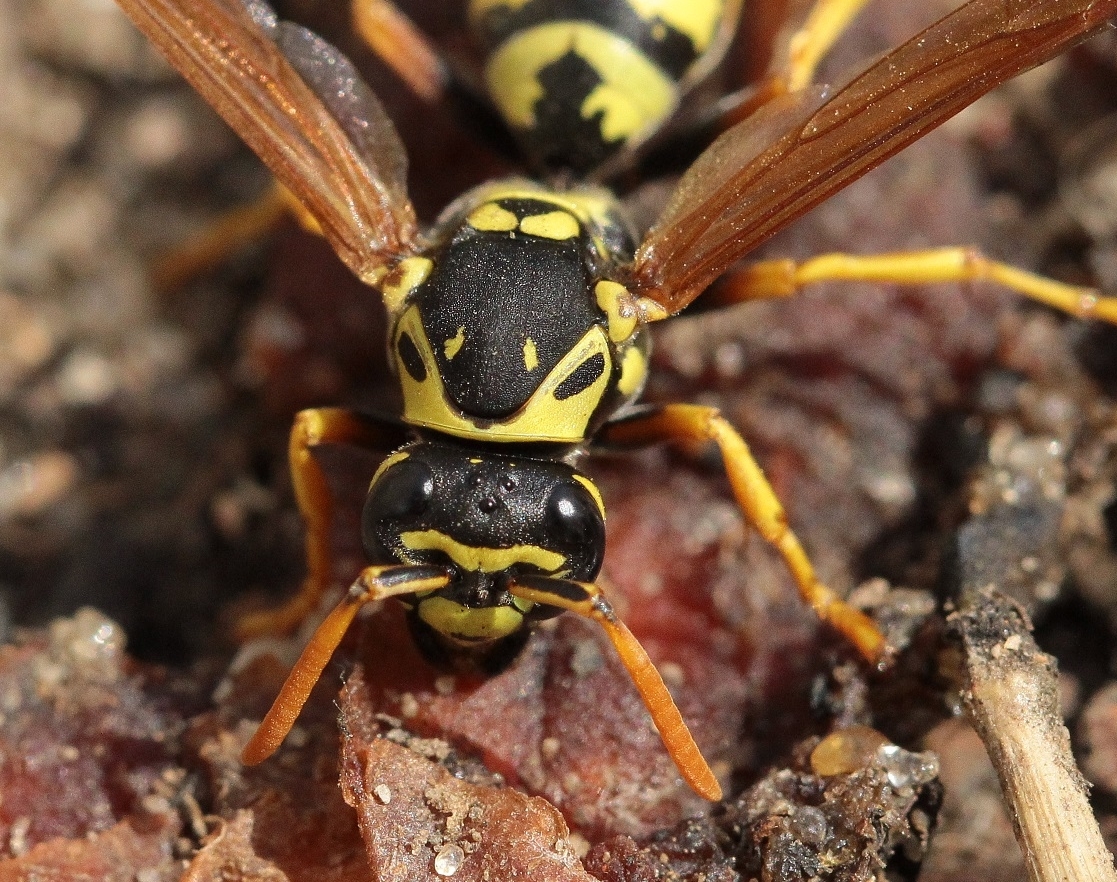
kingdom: Animalia
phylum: Arthropoda
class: Insecta
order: Hymenoptera
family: Eumenidae
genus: Polistes
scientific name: Polistes dominula
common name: Paper wasp
